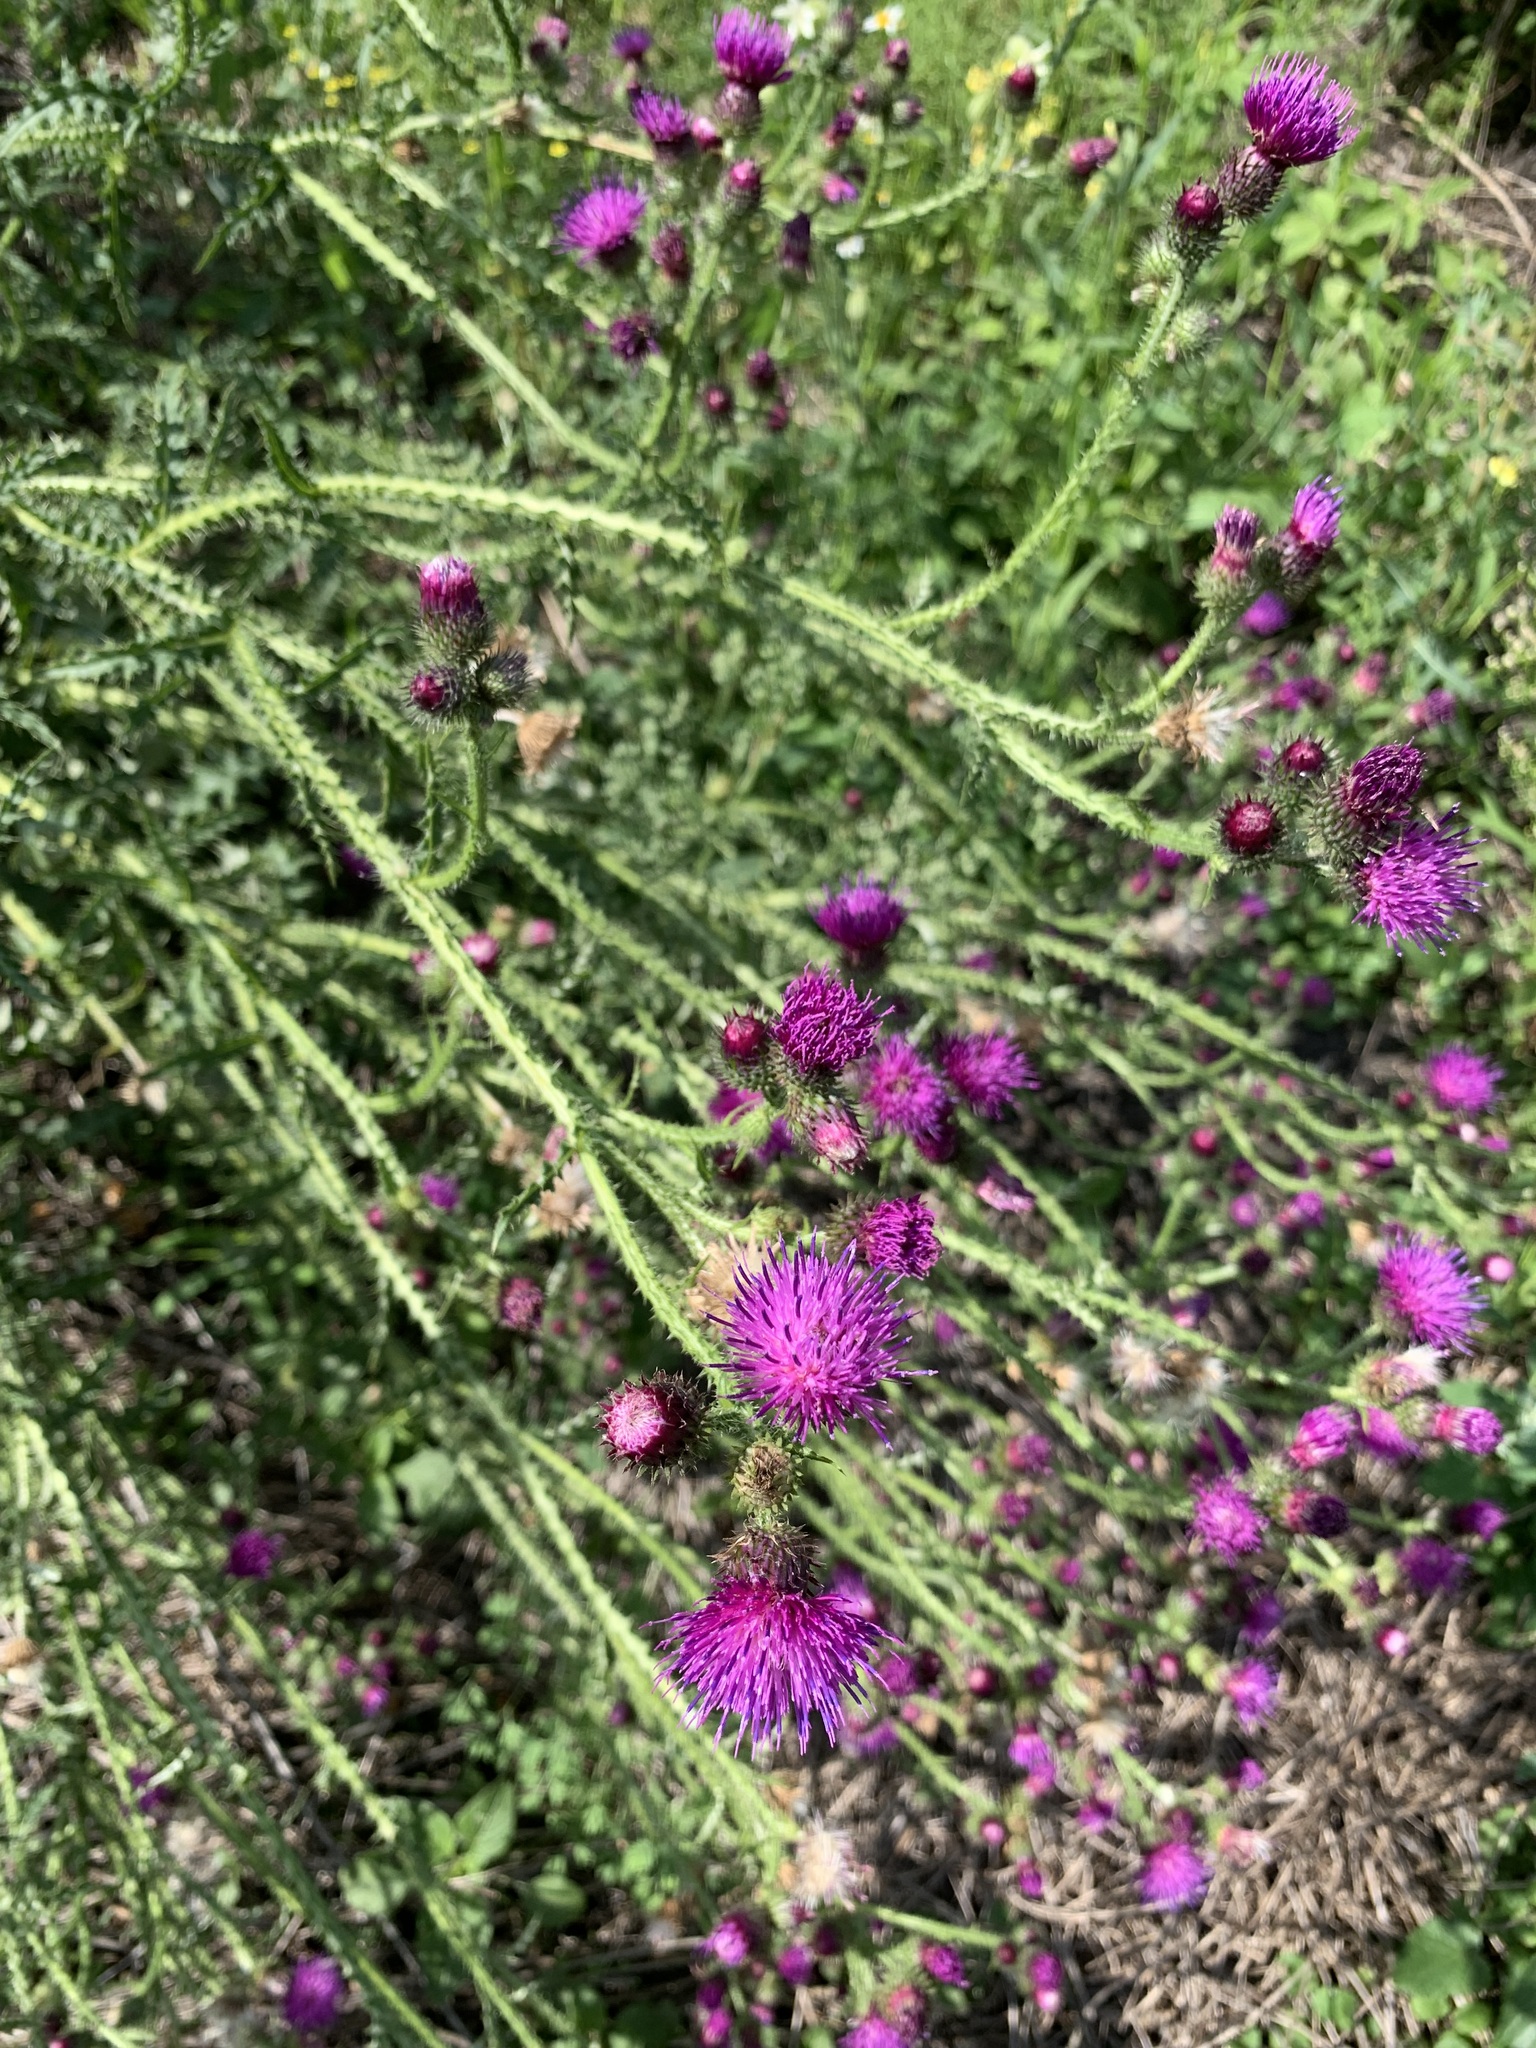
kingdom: Plantae
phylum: Tracheophyta
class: Magnoliopsida
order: Asterales
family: Asteraceae
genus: Carduus
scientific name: Carduus crispus
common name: Welted thistle
